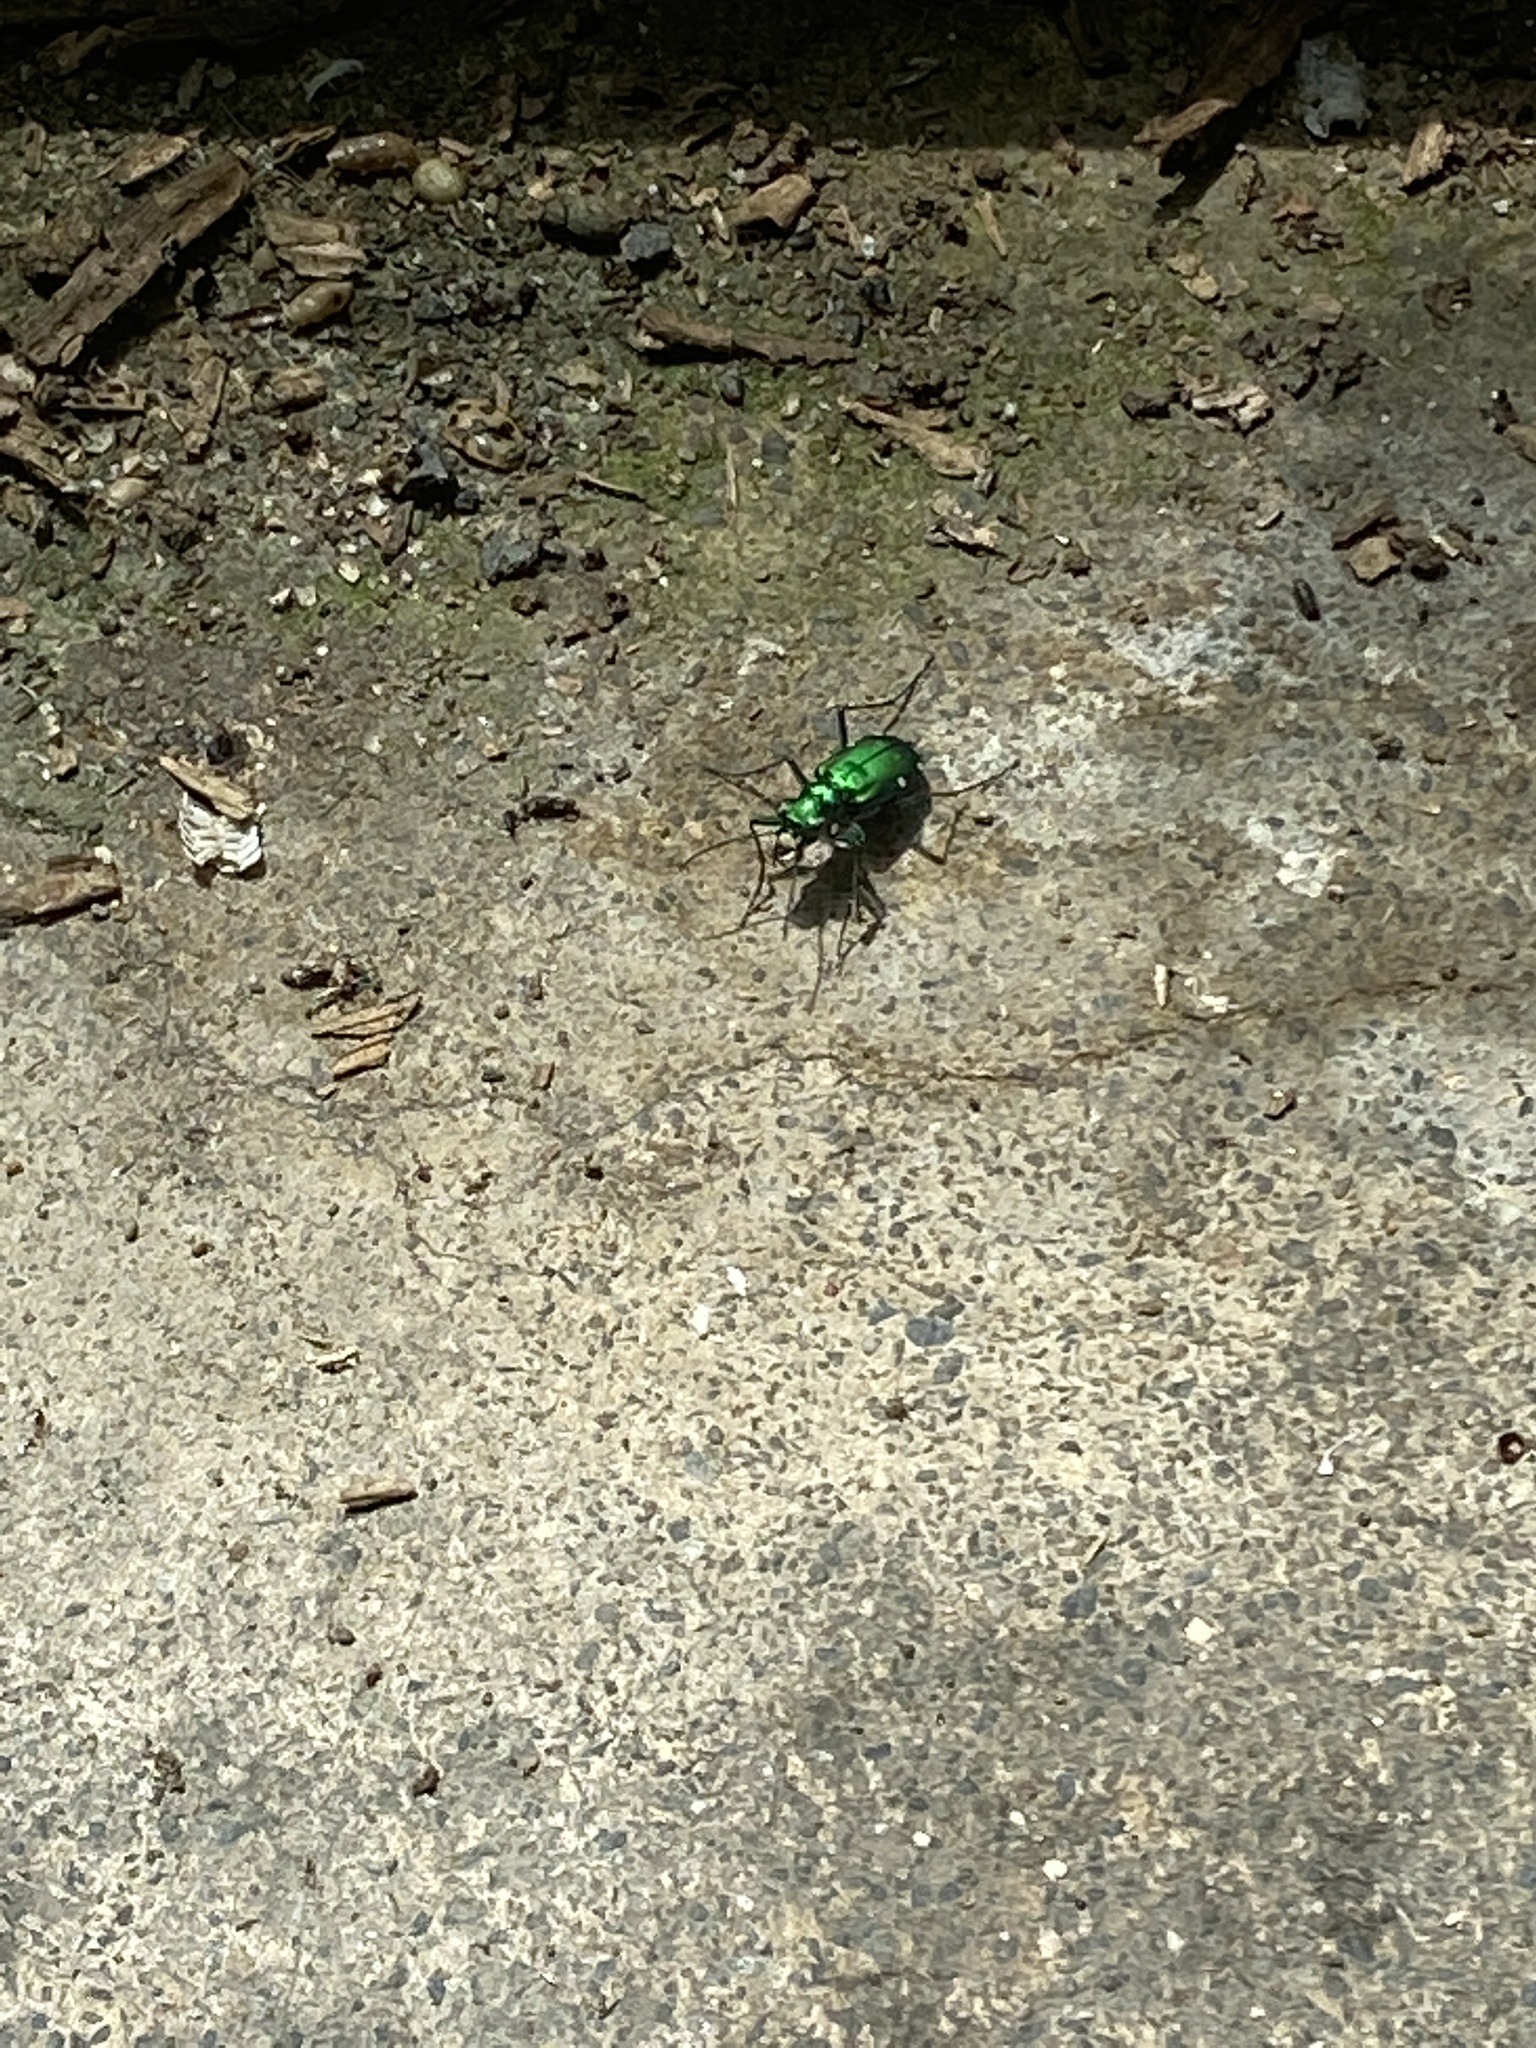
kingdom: Animalia
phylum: Arthropoda
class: Insecta
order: Coleoptera
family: Carabidae
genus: Cicindela
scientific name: Cicindela sexguttata
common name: Six-spotted tiger beetle
